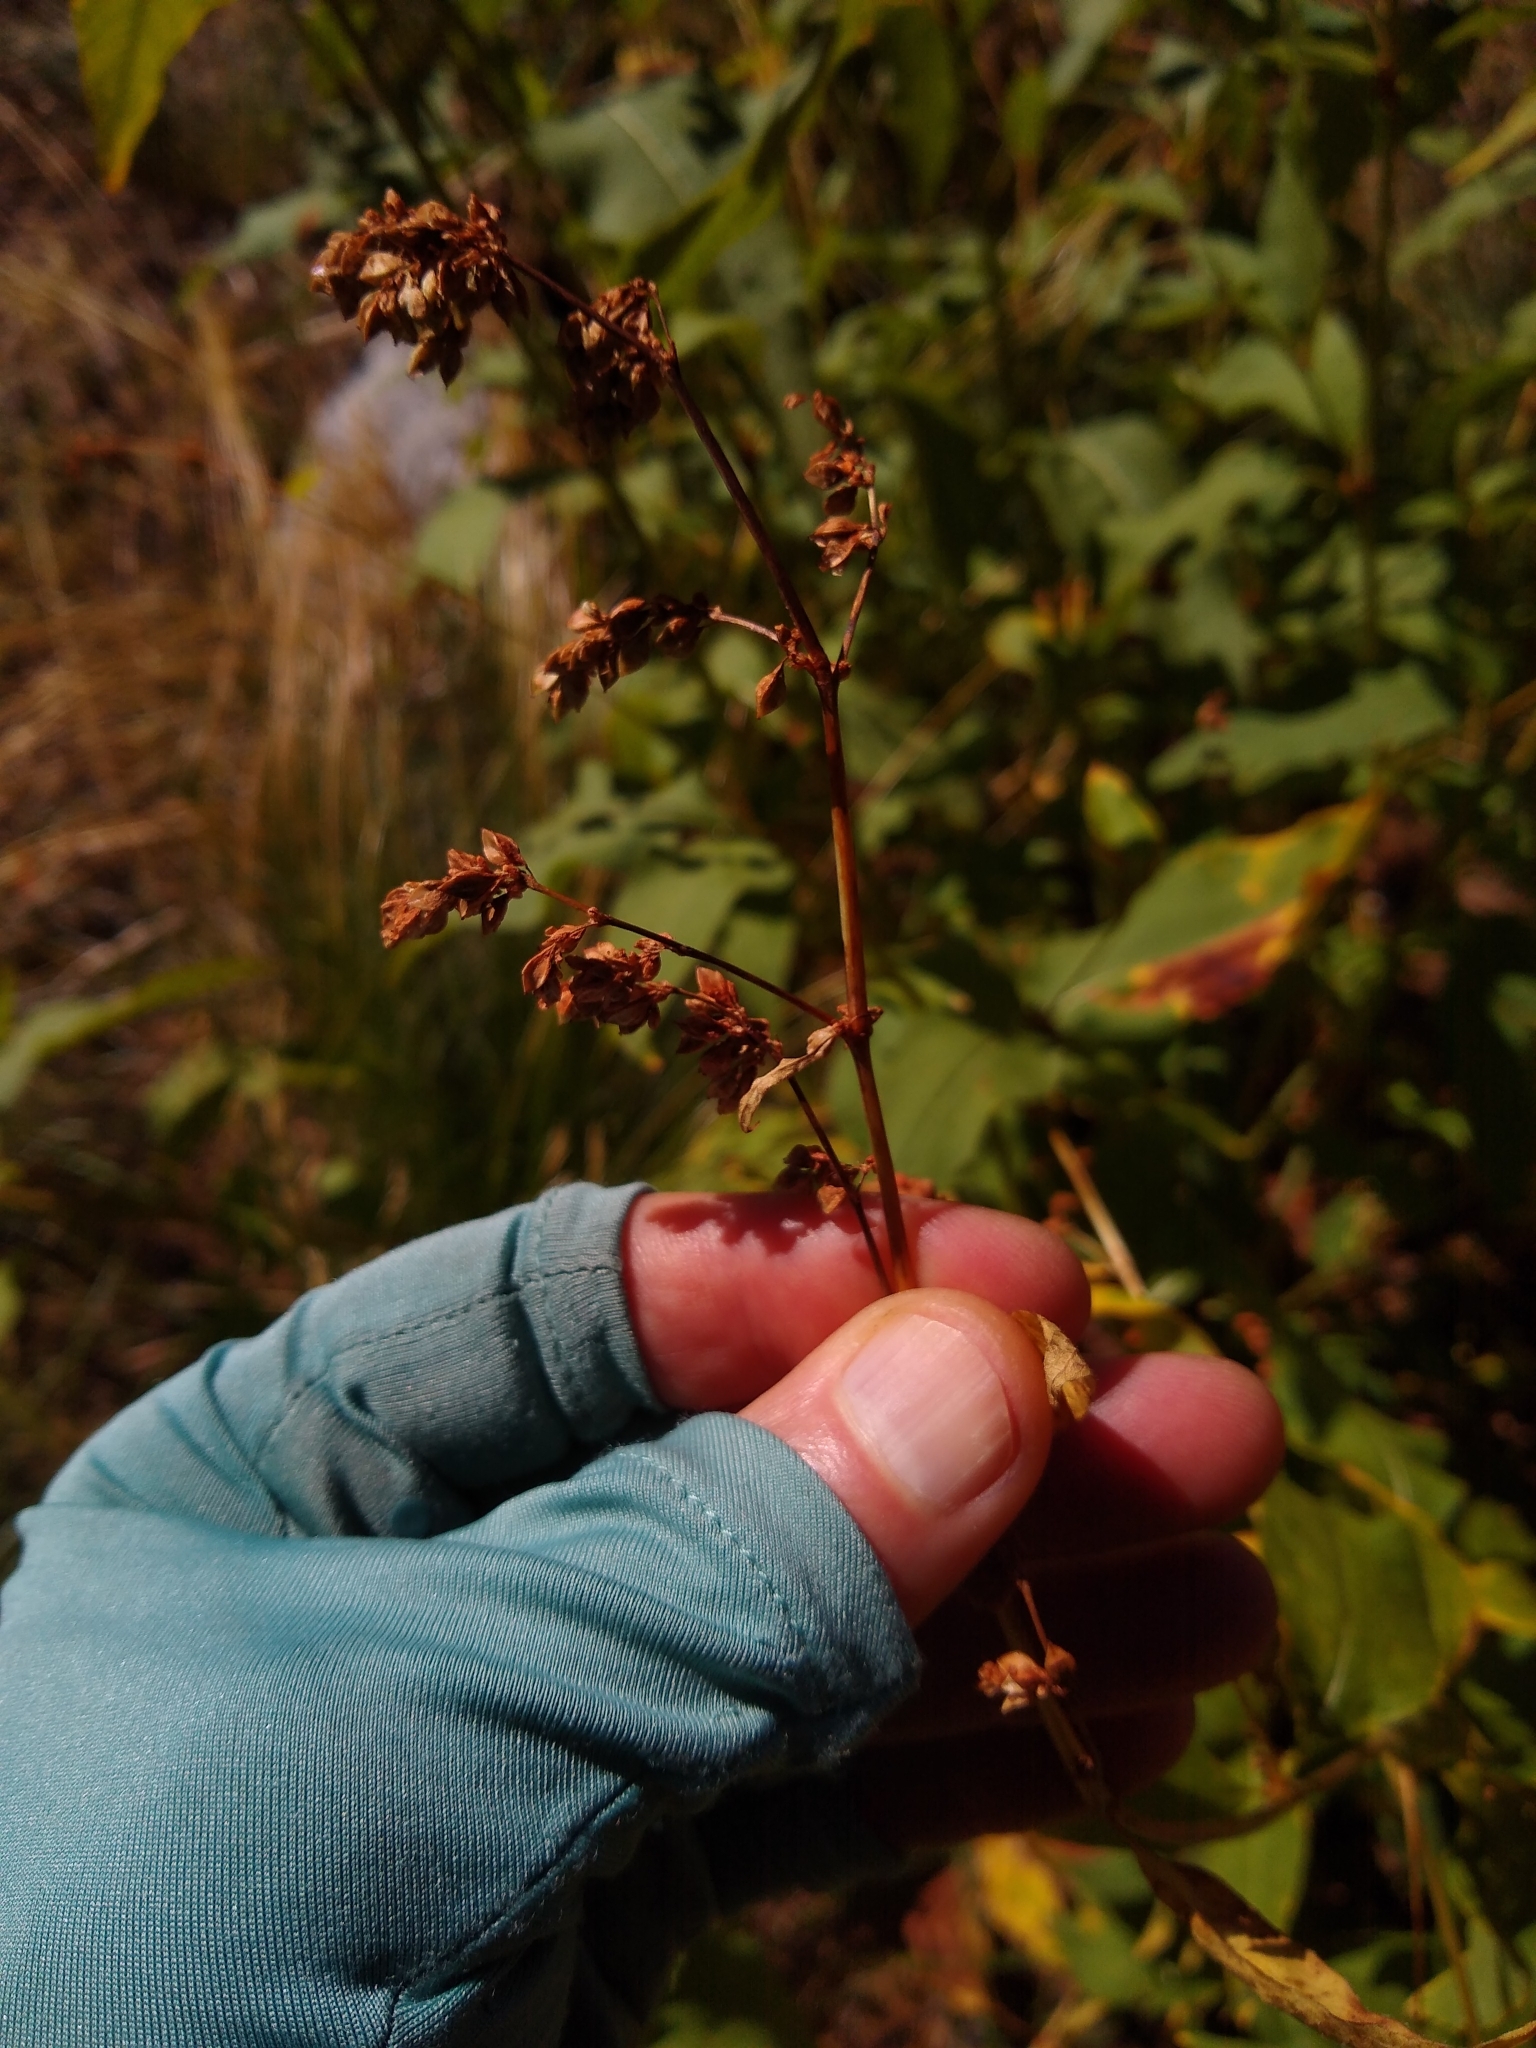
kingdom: Plantae
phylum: Tracheophyta
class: Magnoliopsida
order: Caryophyllales
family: Polygonaceae
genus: Koenigia
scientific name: Koenigia phytolaccifolia
